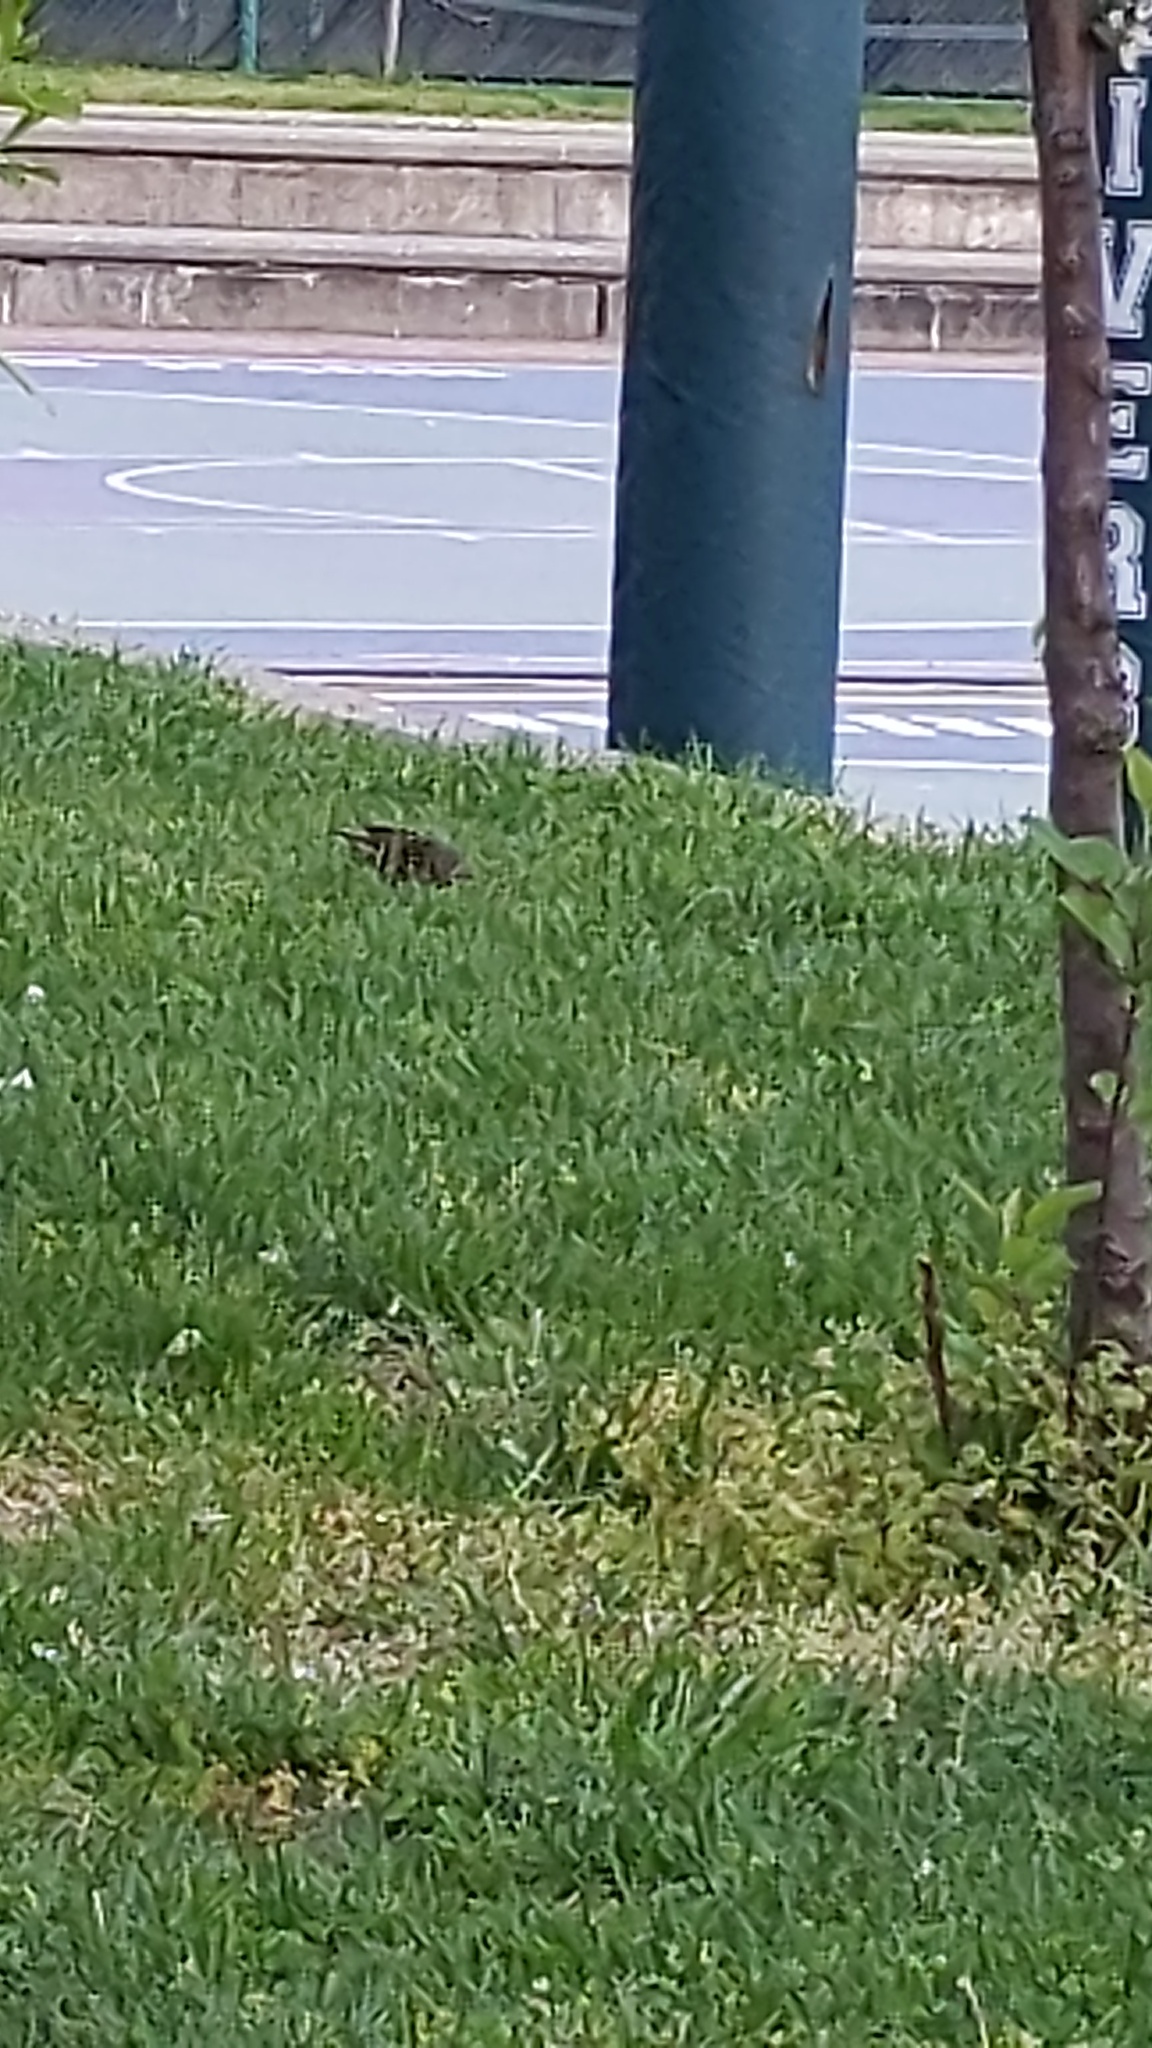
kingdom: Animalia
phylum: Chordata
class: Aves
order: Passeriformes
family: Sturnidae
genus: Sturnus
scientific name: Sturnus vulgaris
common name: Common starling
